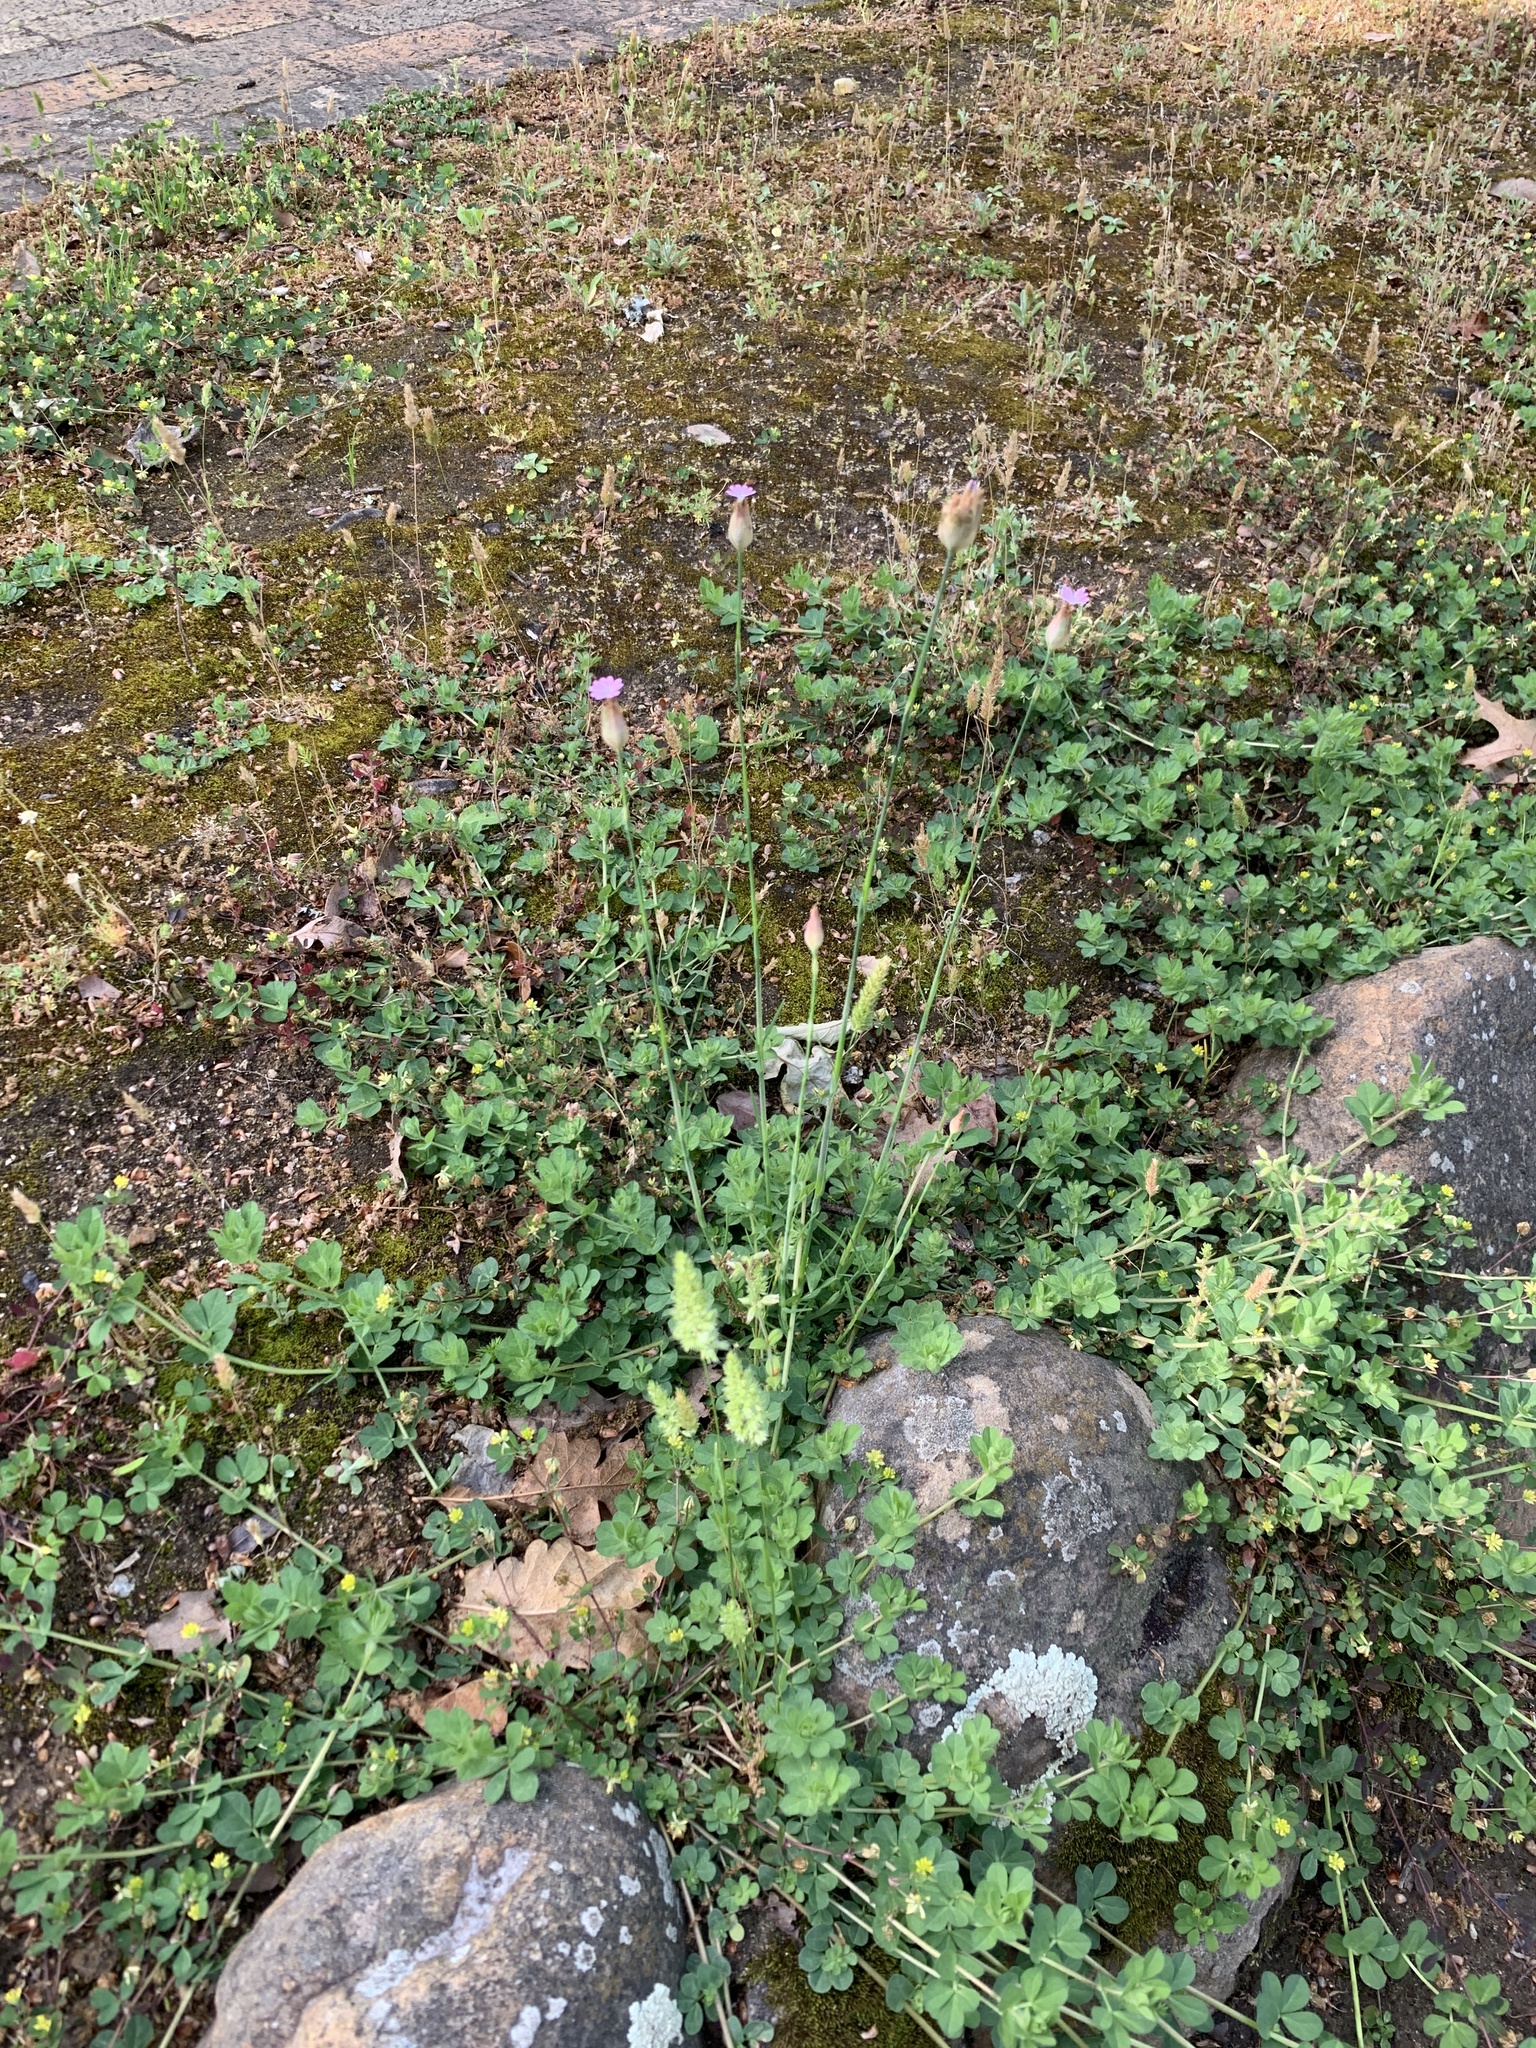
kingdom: Plantae
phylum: Tracheophyta
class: Magnoliopsida
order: Caryophyllales
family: Caryophyllaceae
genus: Petrorhagia
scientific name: Petrorhagia dubia
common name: Hairypink
